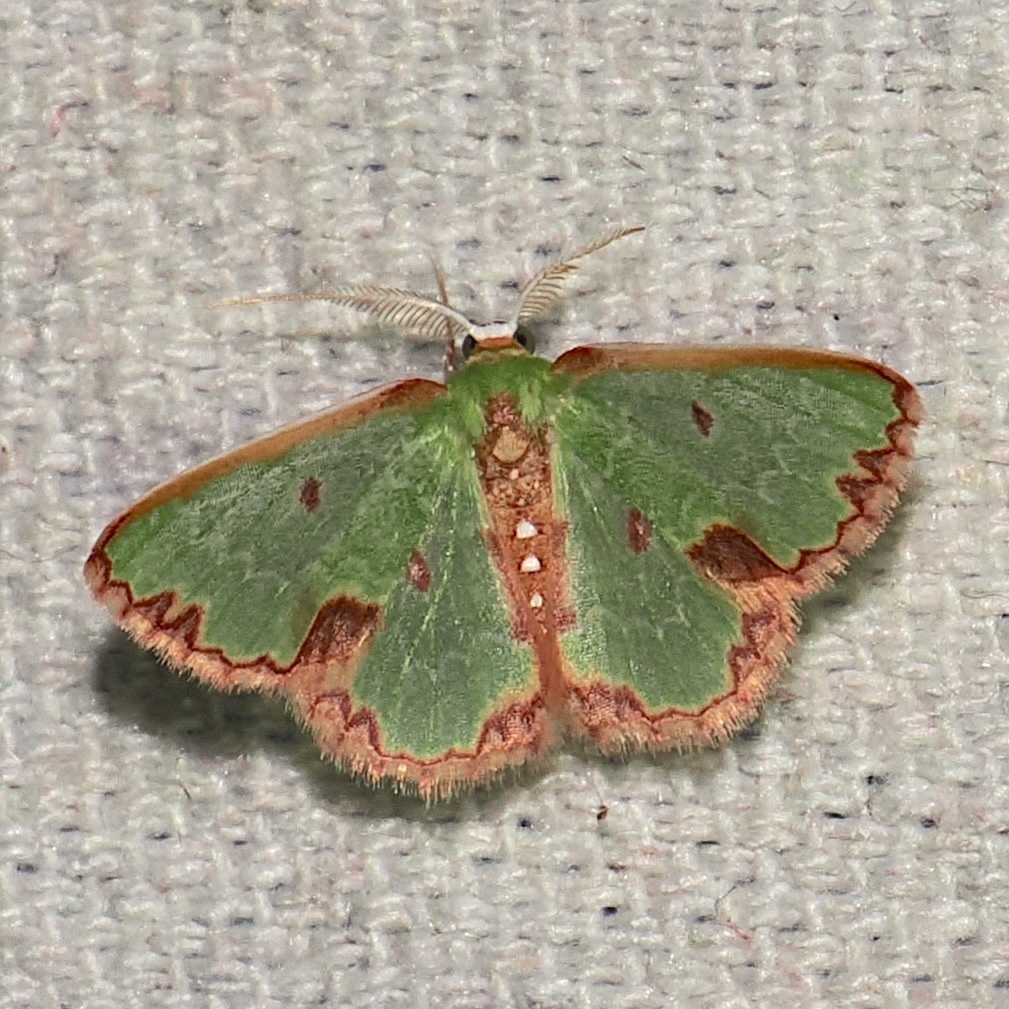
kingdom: Animalia
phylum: Arthropoda
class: Insecta
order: Lepidoptera
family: Geometridae
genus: Synchlora
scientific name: Synchlora decorata
